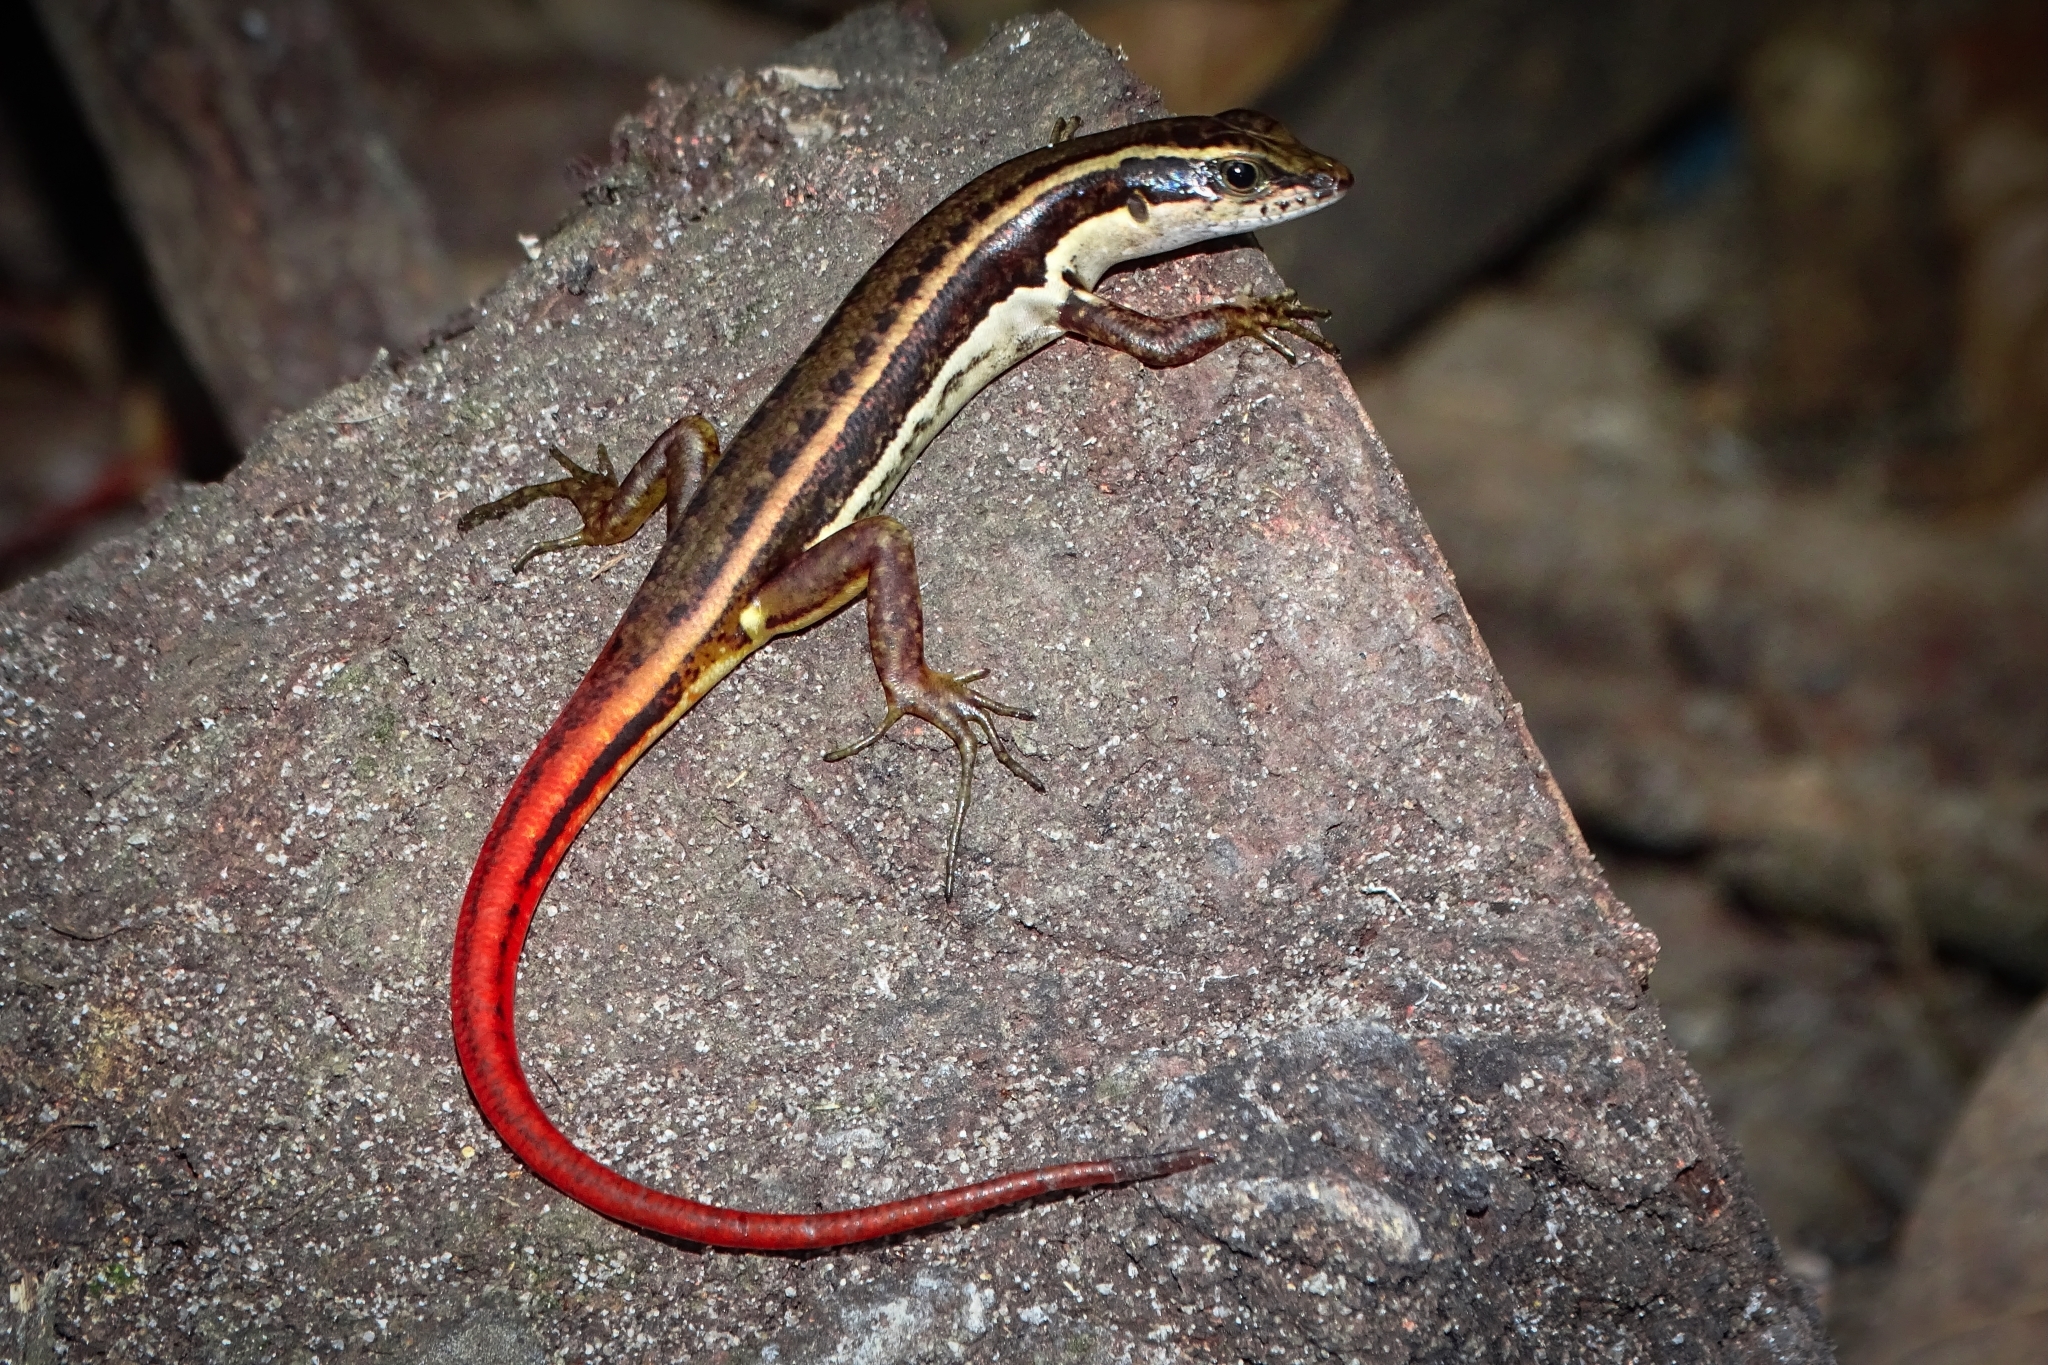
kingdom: Animalia
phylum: Chordata
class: Squamata
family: Scincidae
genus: Sphenomorphus
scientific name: Sphenomorphus dussumieri
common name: Dussumier's forest skink
